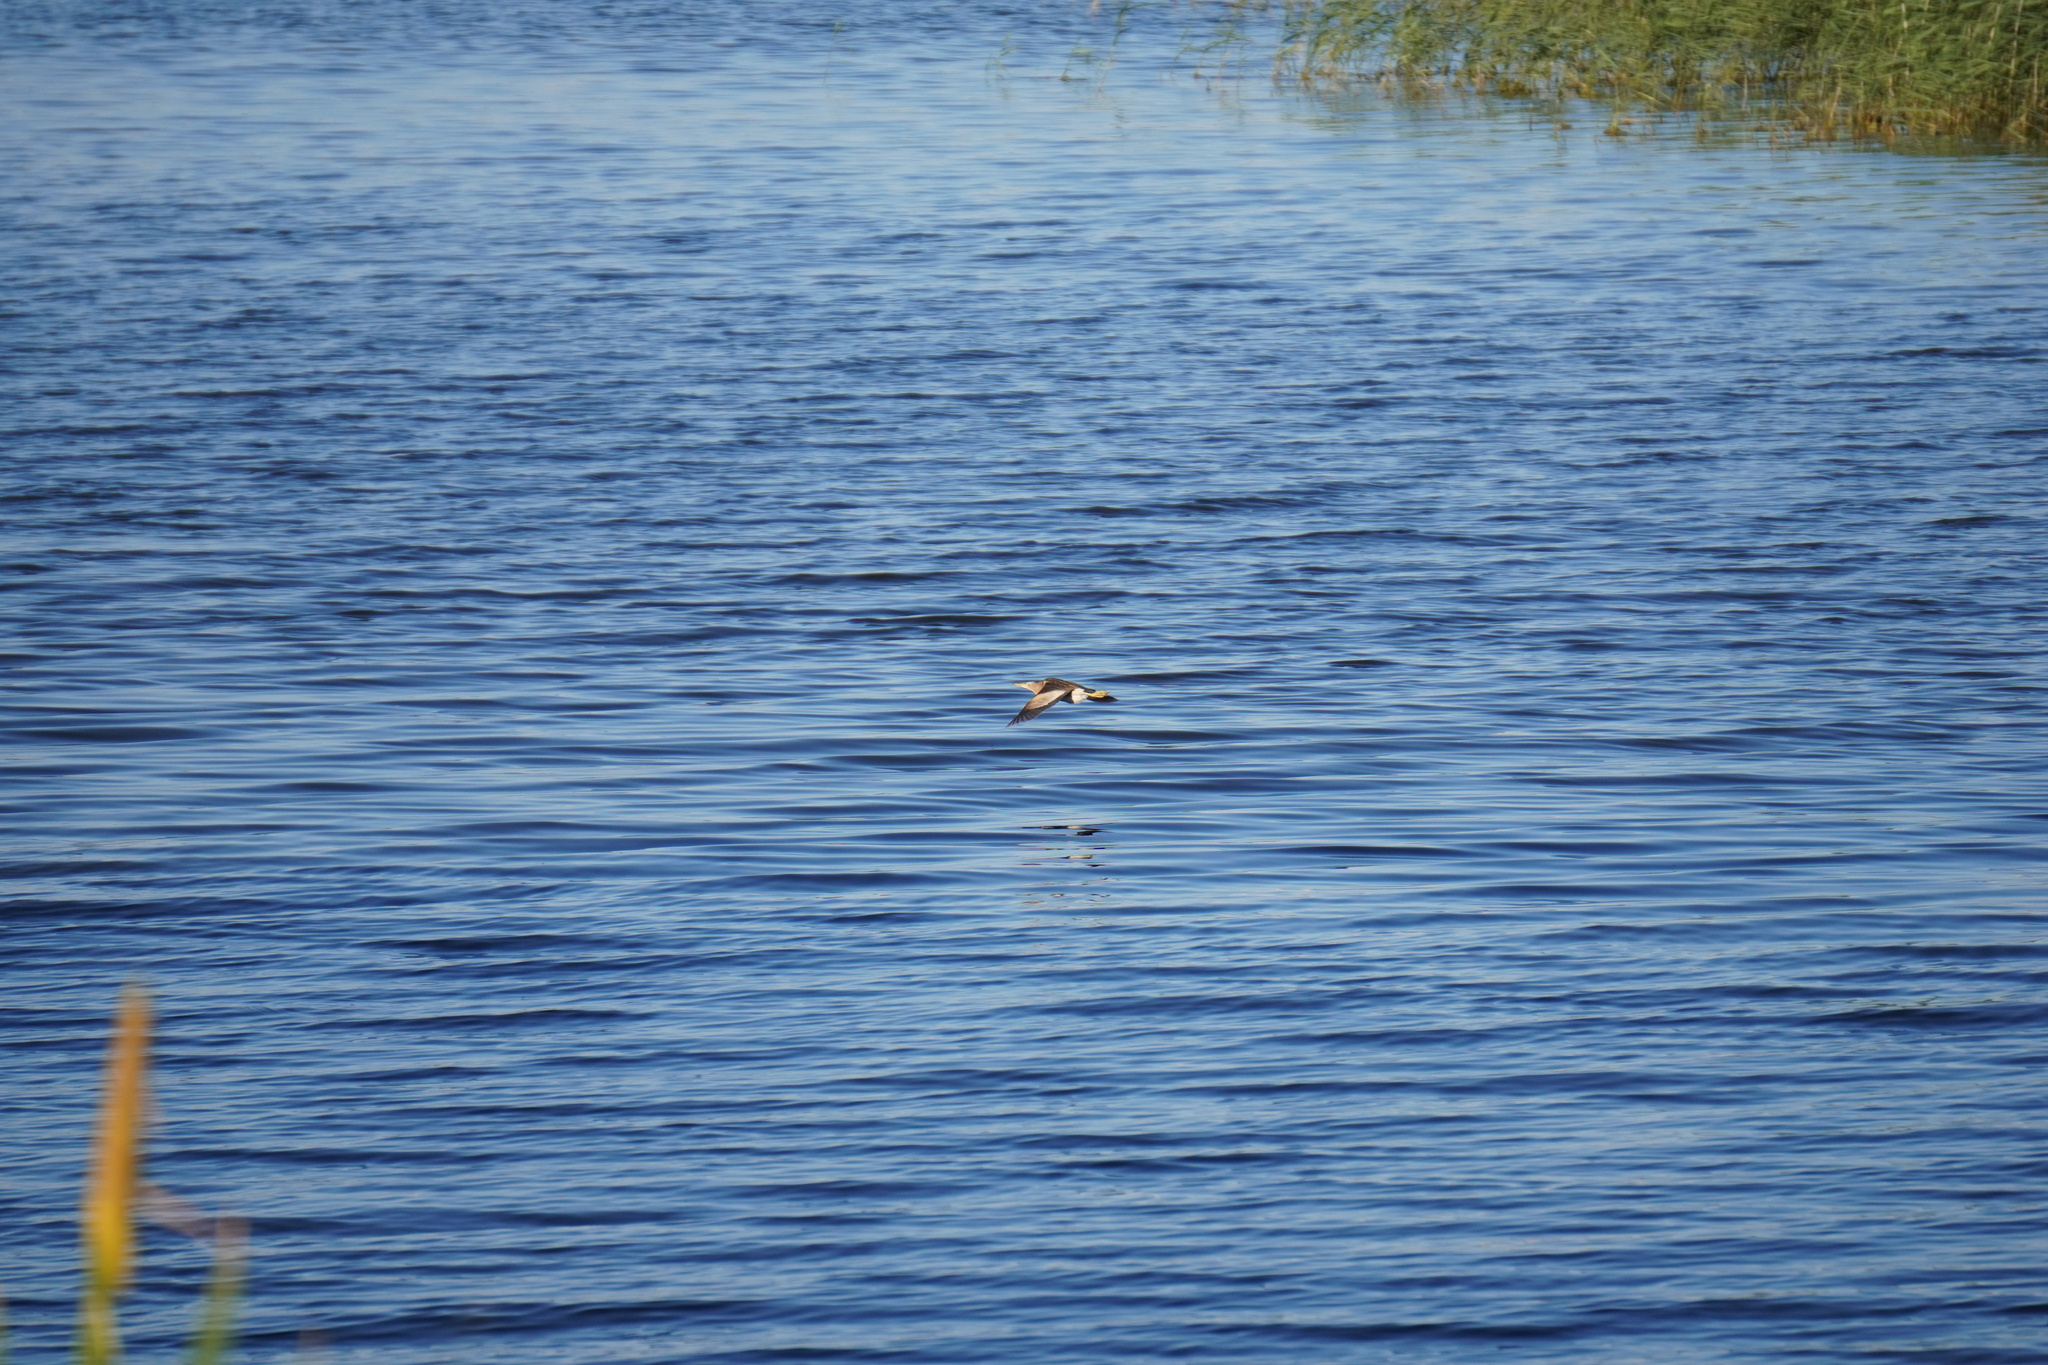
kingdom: Animalia
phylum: Chordata
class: Aves
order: Pelecaniformes
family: Ardeidae
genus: Ixobrychus
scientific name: Ixobrychus minutus
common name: Little bittern
